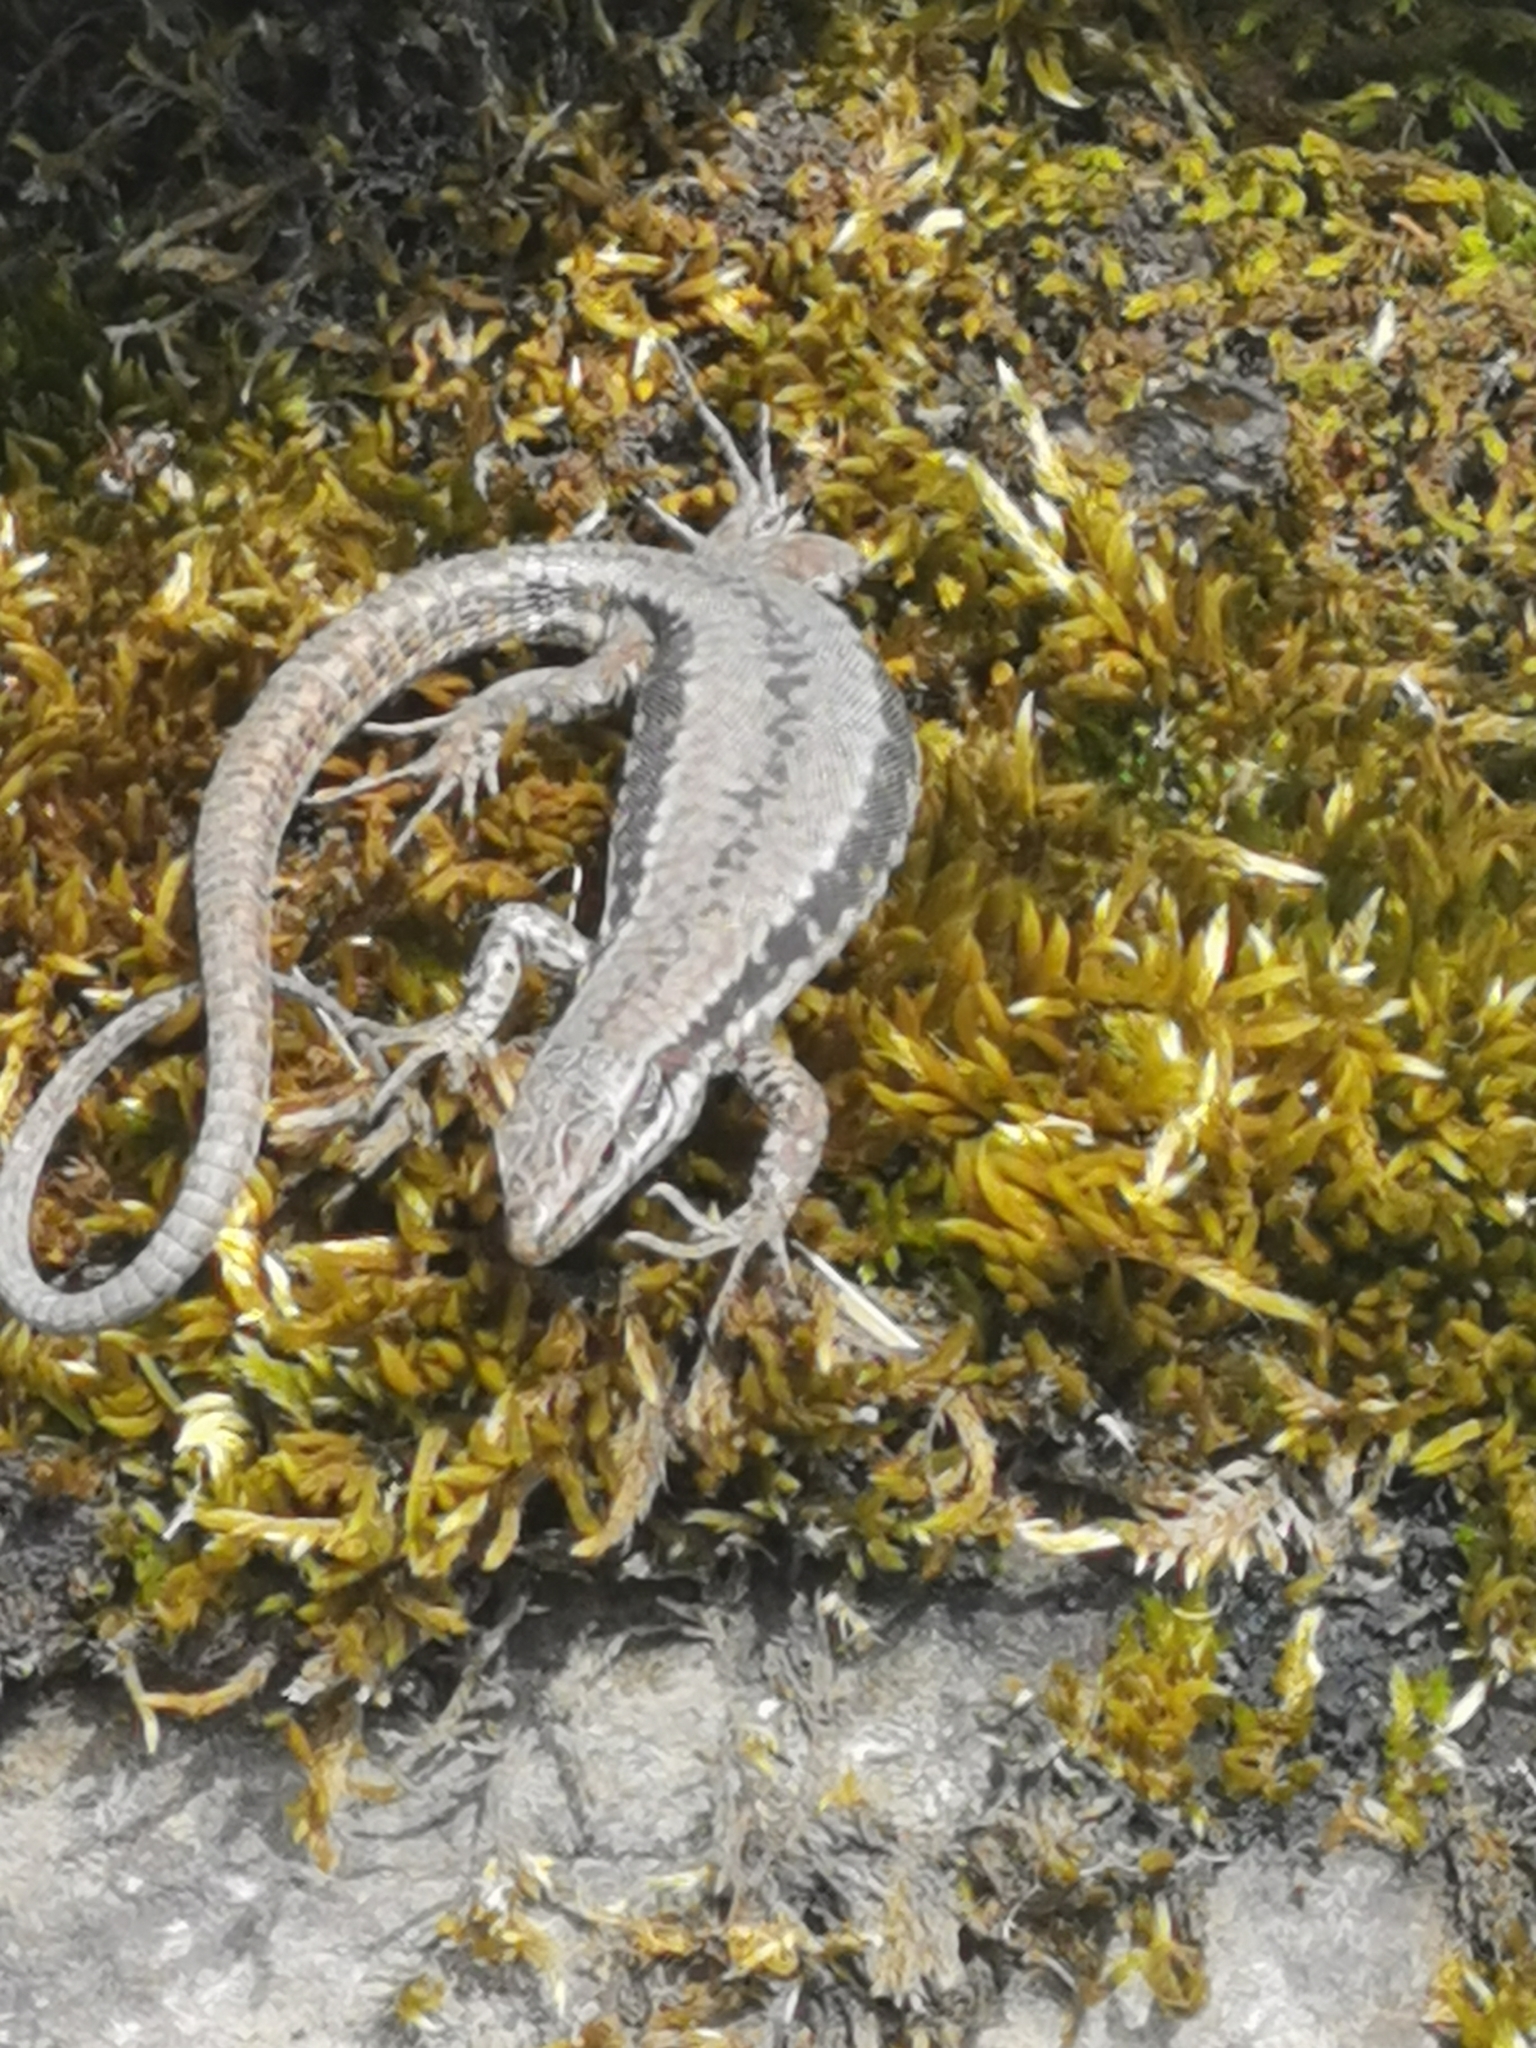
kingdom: Animalia
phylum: Chordata
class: Squamata
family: Lacertidae
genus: Podarcis
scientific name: Podarcis muralis
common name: Common wall lizard
